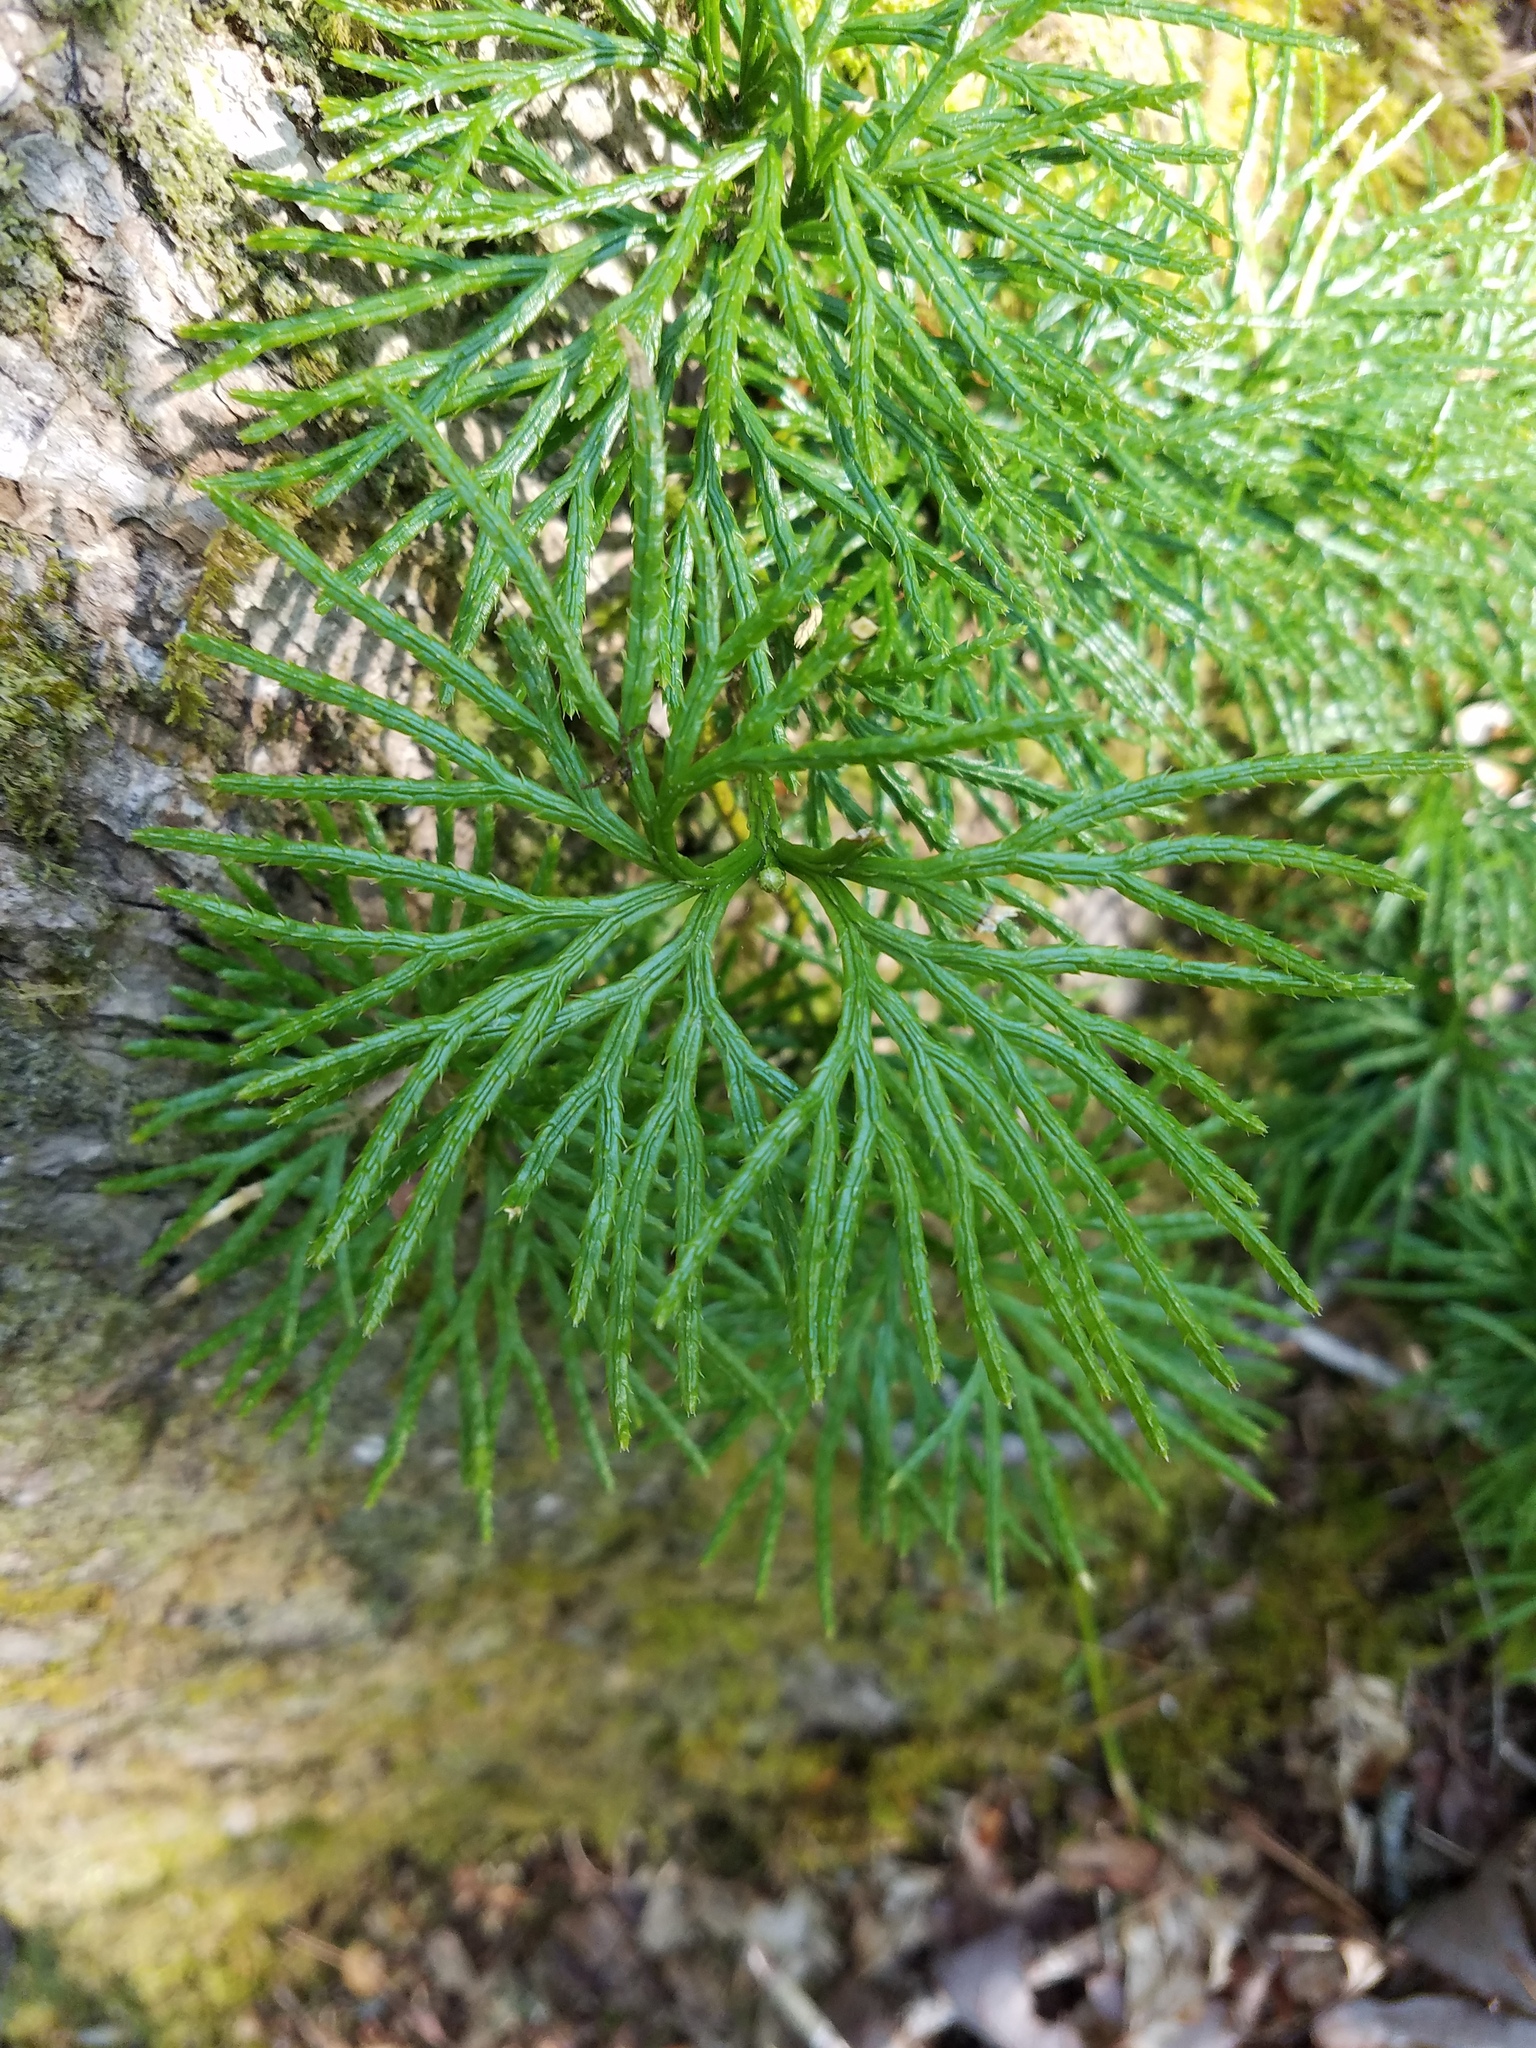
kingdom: Plantae
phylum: Tracheophyta
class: Lycopodiopsida
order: Lycopodiales
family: Lycopodiaceae
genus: Diphasiastrum
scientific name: Diphasiastrum digitatum
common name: Southern running-pine
